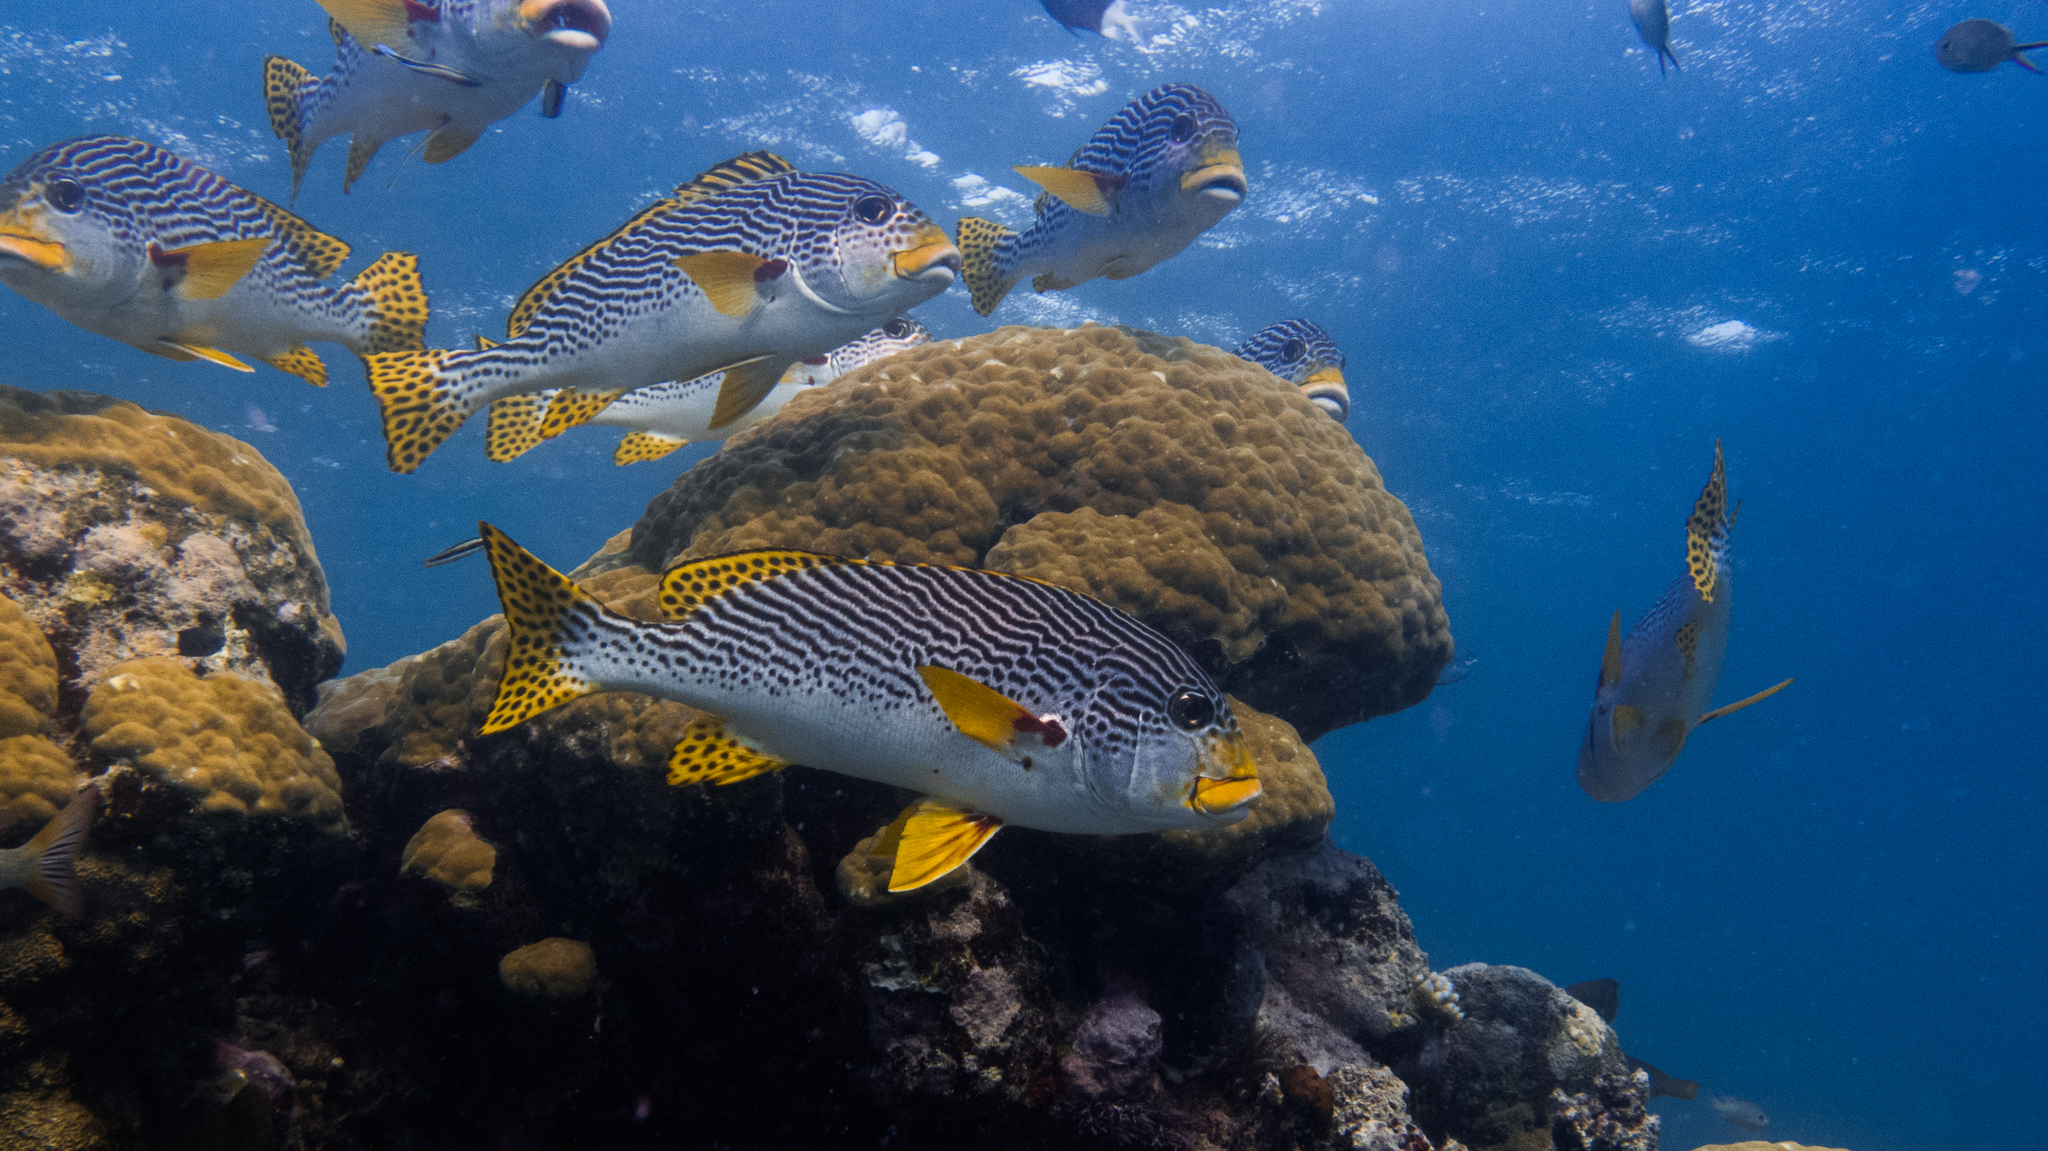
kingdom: Animalia
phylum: Chordata
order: Perciformes
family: Haemulidae
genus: Plectorhinchus
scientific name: Plectorhinchus lineatus
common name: Goldman's sweetlips
